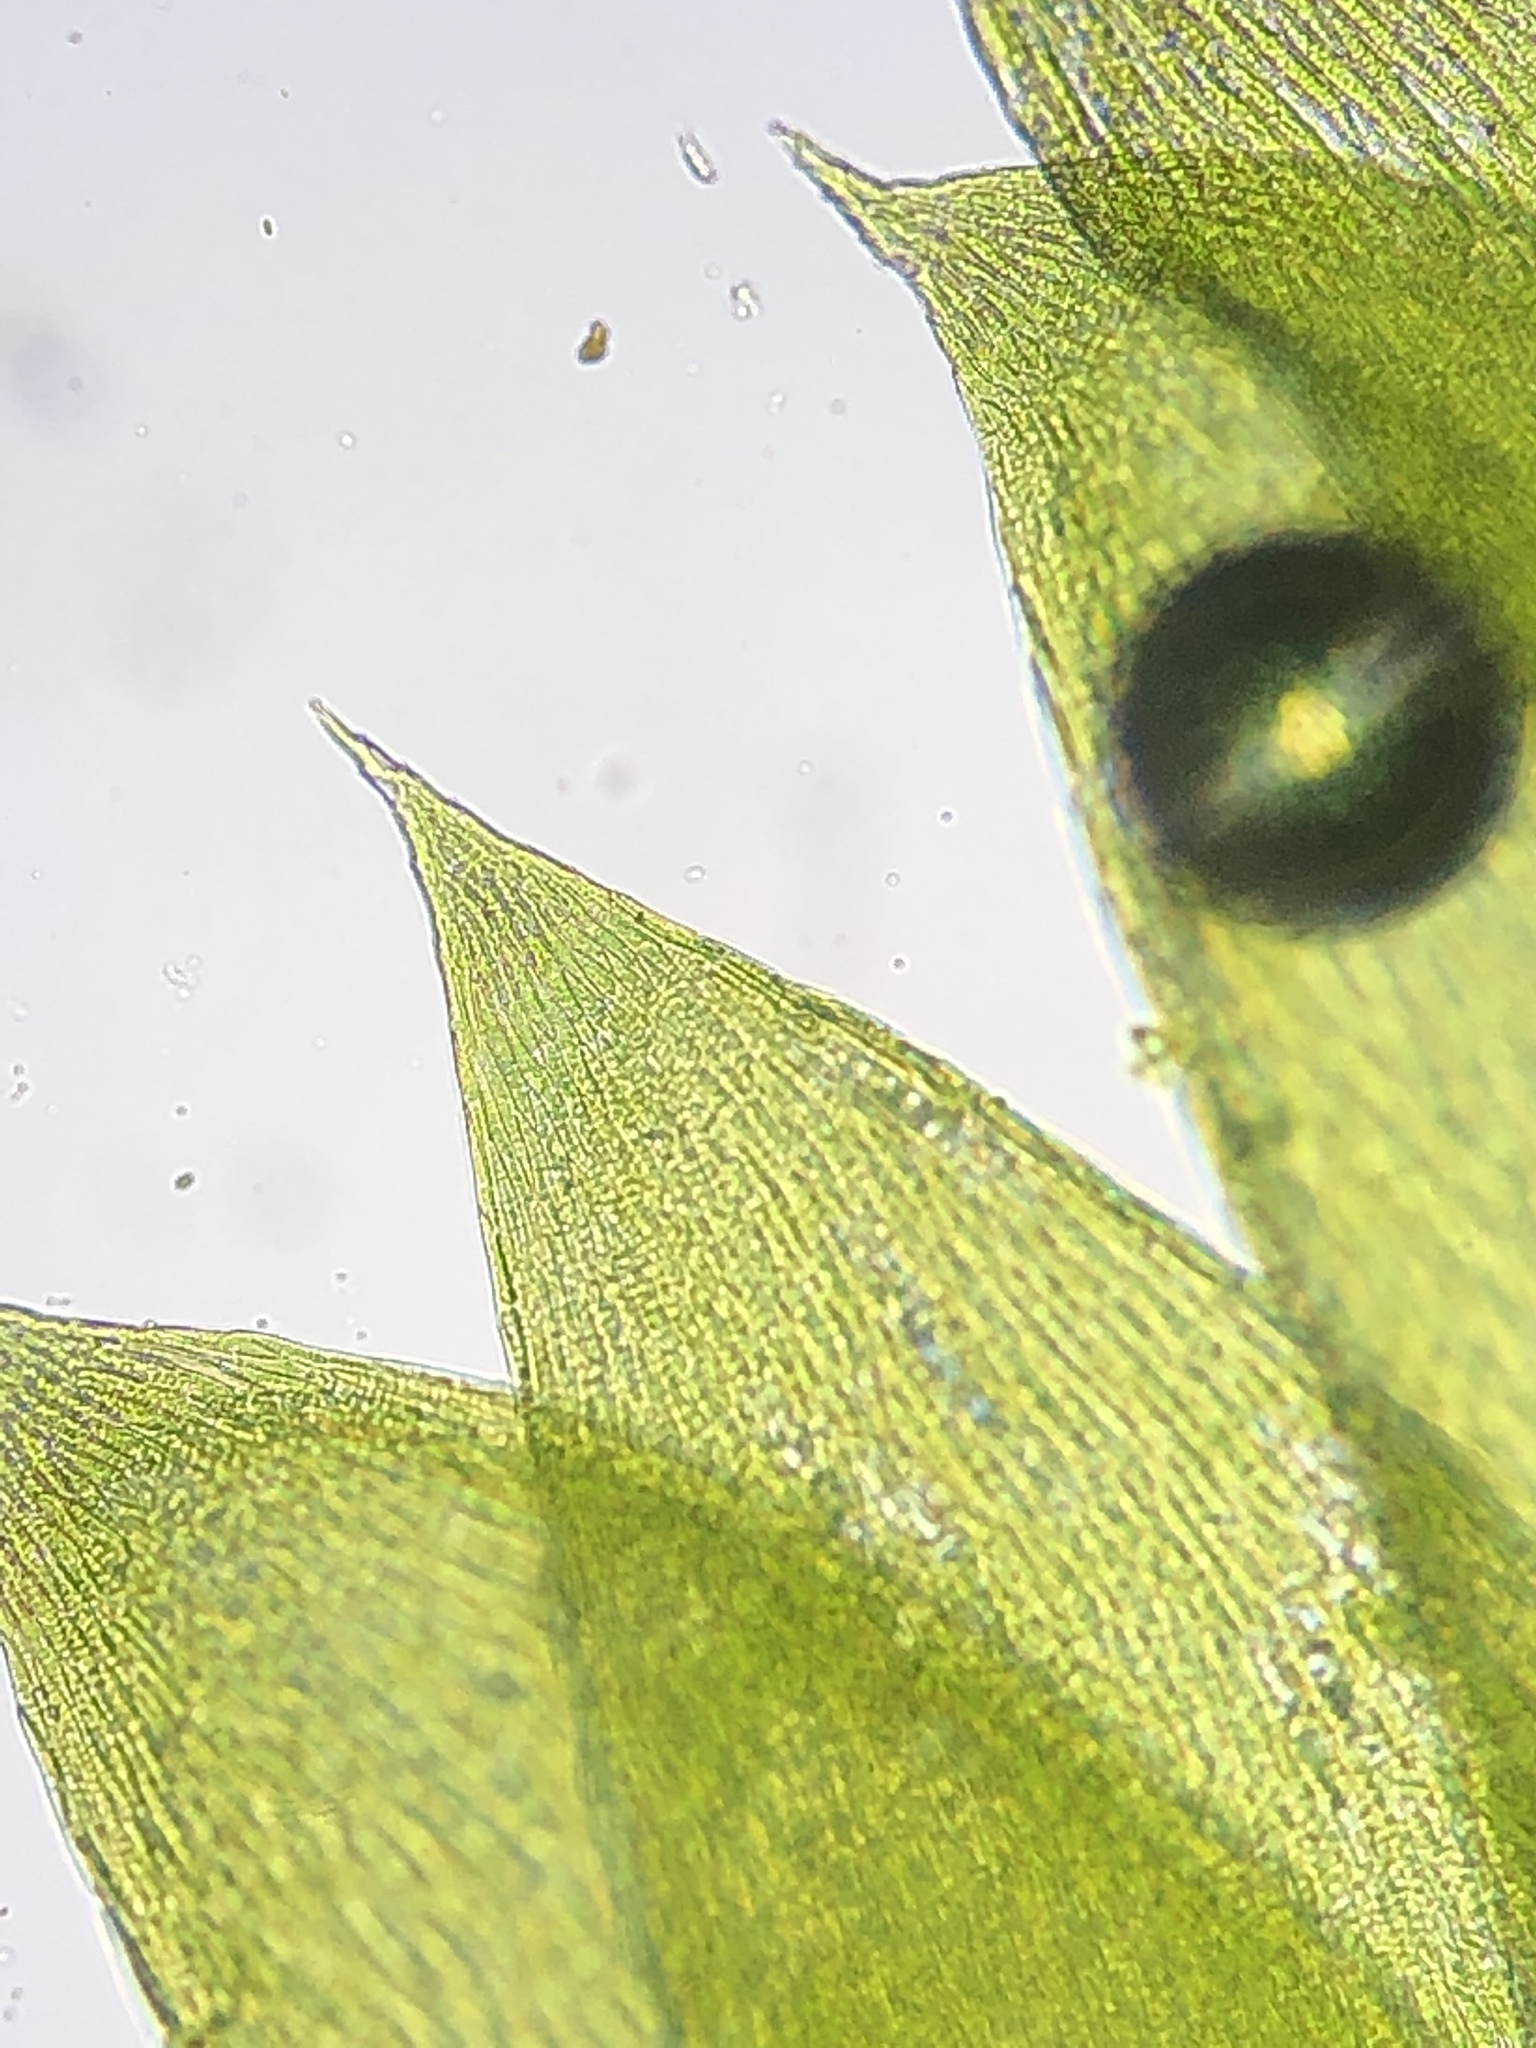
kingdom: Plantae
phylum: Bryophyta
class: Bryopsida
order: Hypnales
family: Plagiotheciaceae
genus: Plagiothecium
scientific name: Plagiothecium succulentum
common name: Juicy silk-moss
